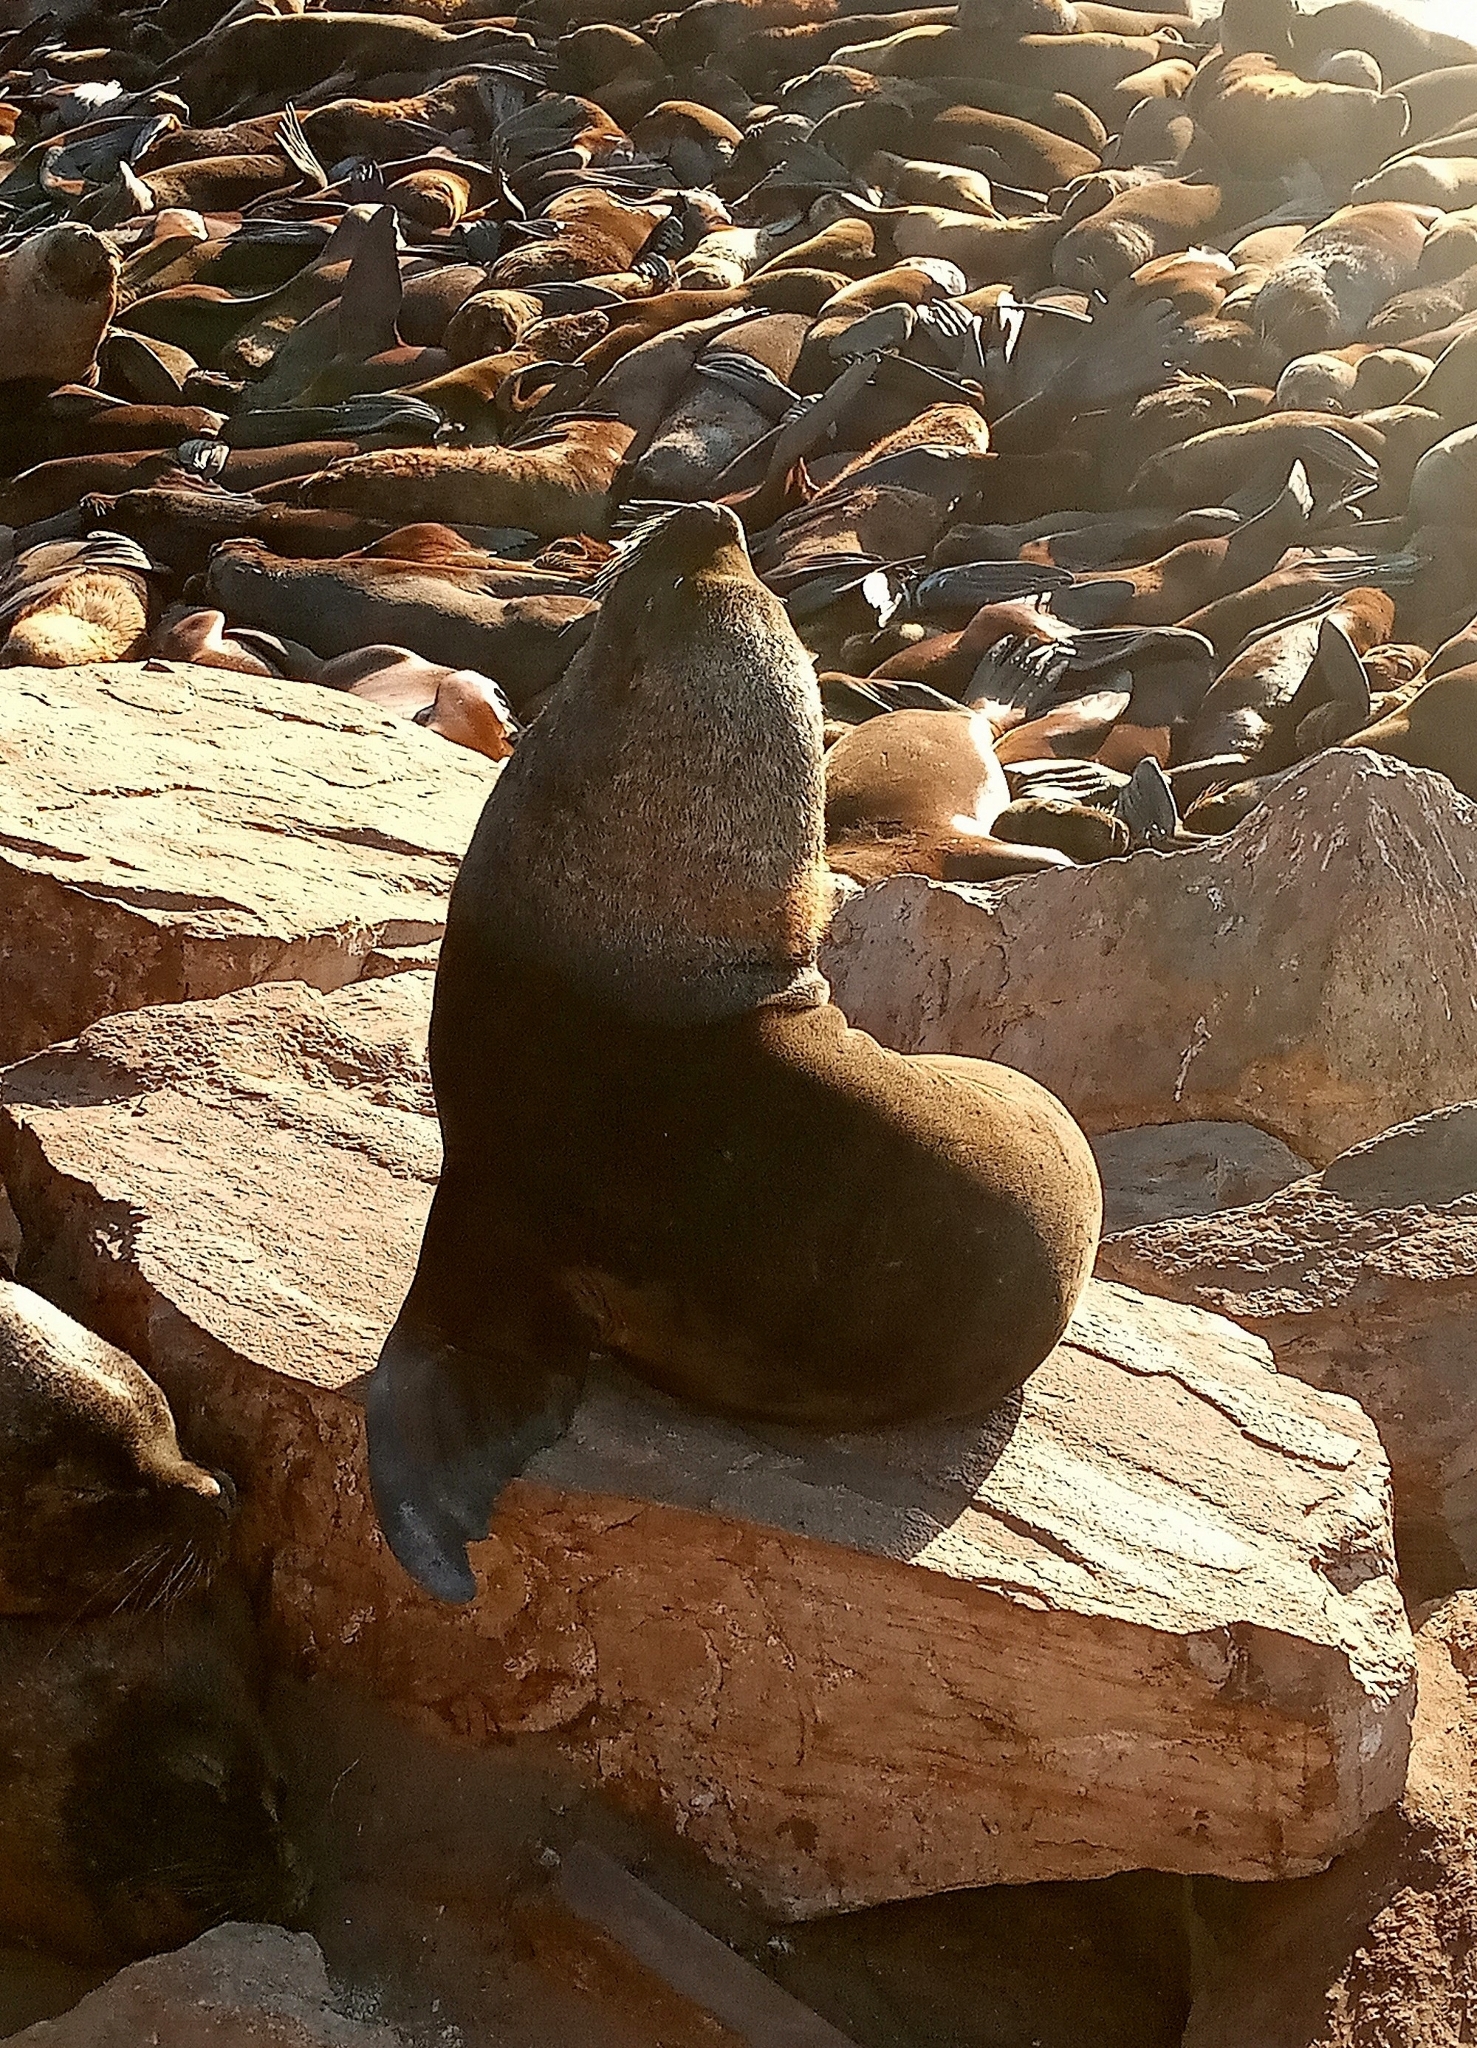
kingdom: Animalia
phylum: Chordata
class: Mammalia
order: Carnivora
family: Otariidae
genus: Otaria
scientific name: Otaria byronia
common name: South american sea lion
